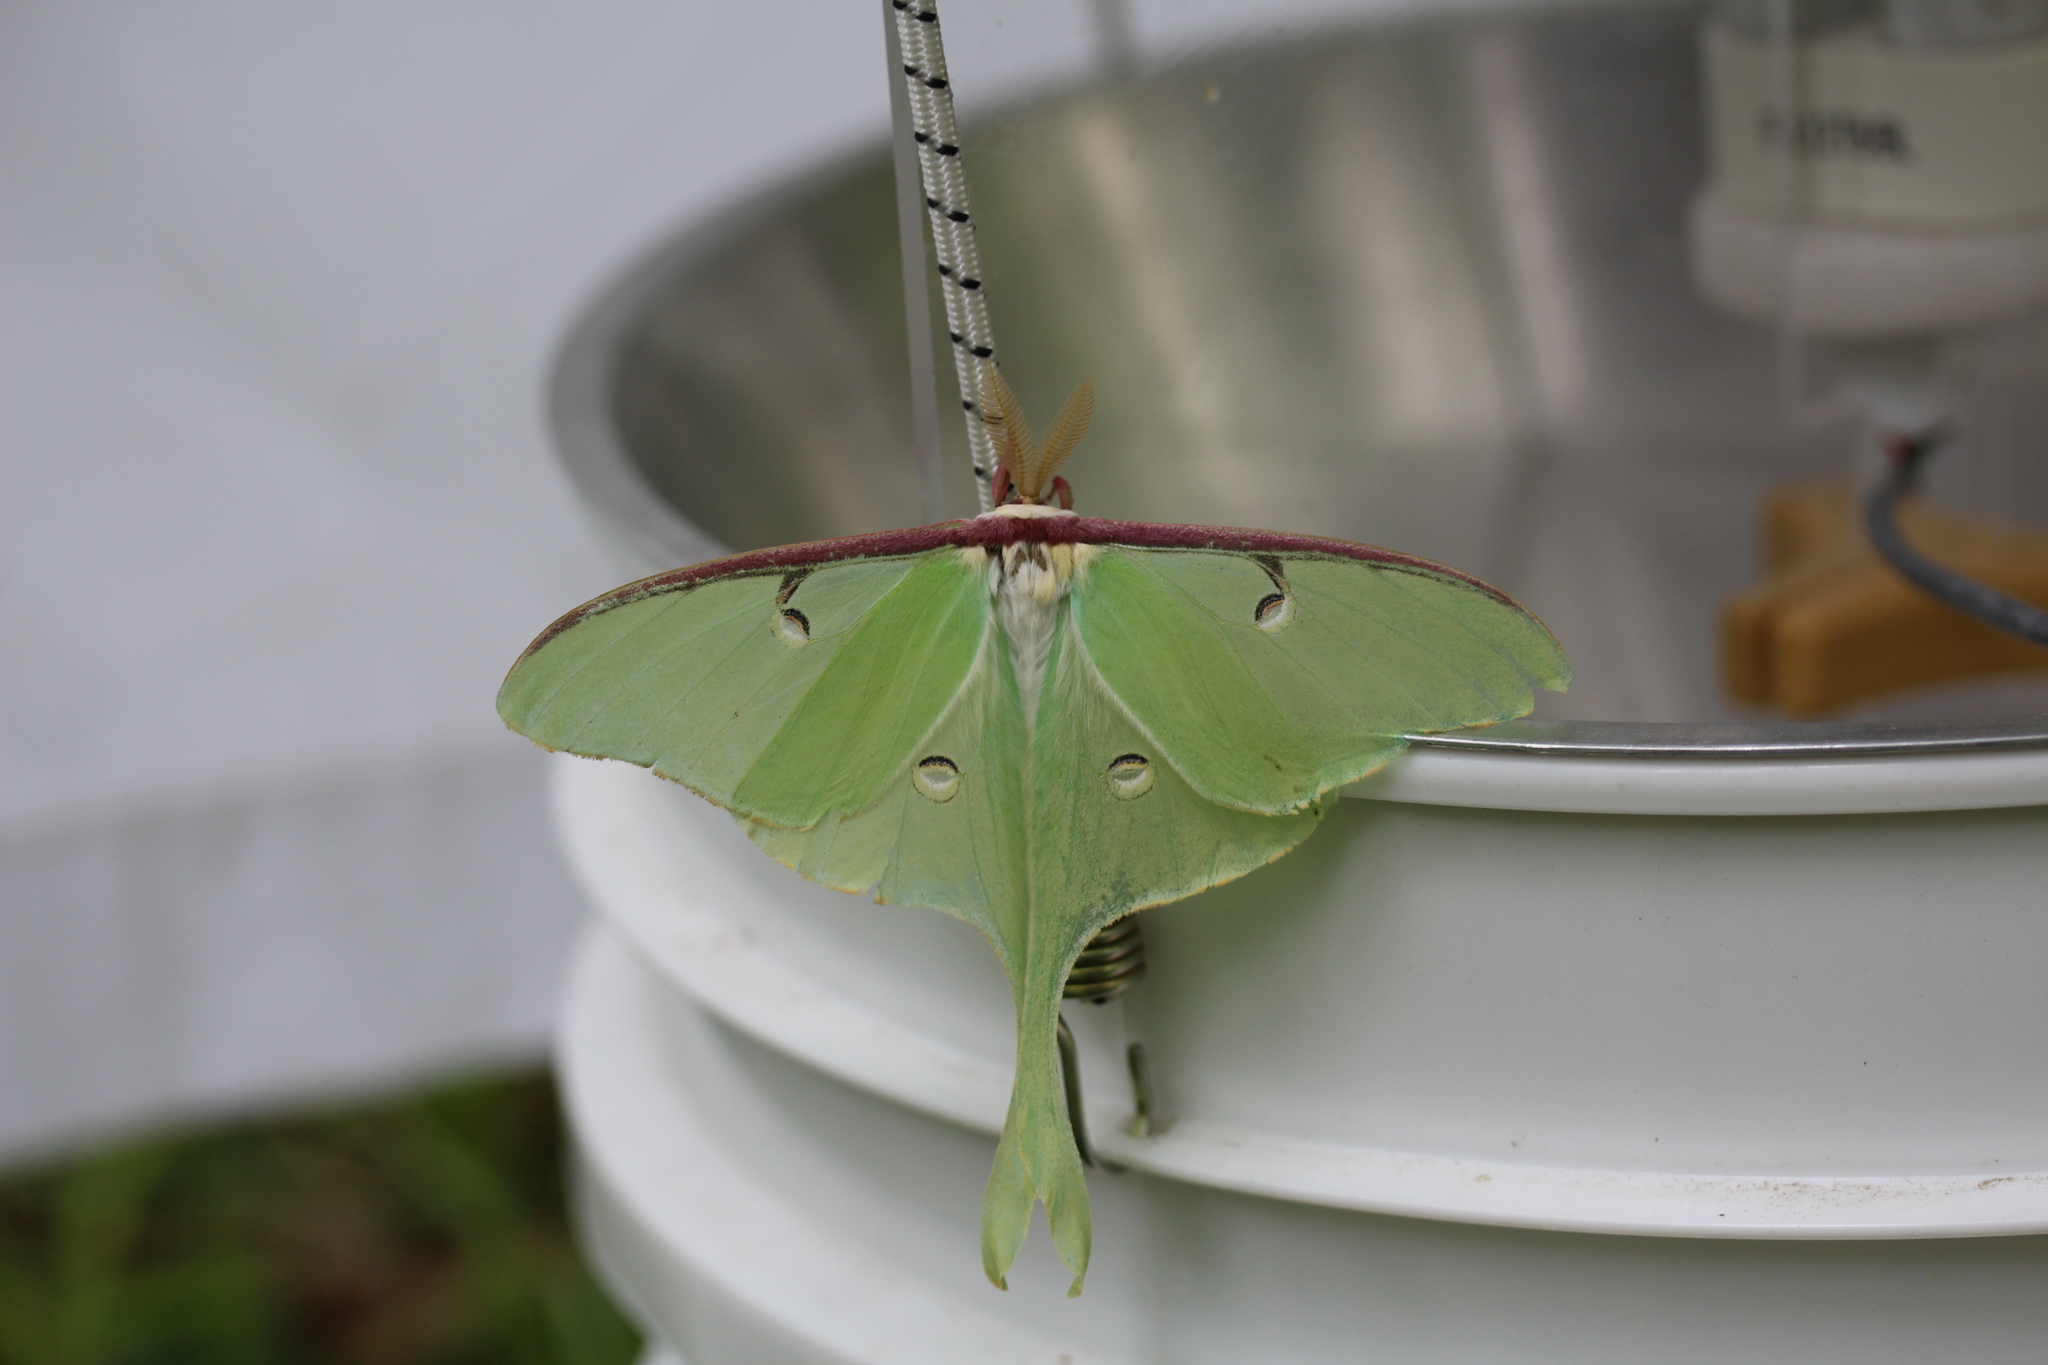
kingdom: Animalia
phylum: Arthropoda
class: Insecta
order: Lepidoptera
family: Saturniidae
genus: Actias
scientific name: Actias luna
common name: Luna moth
